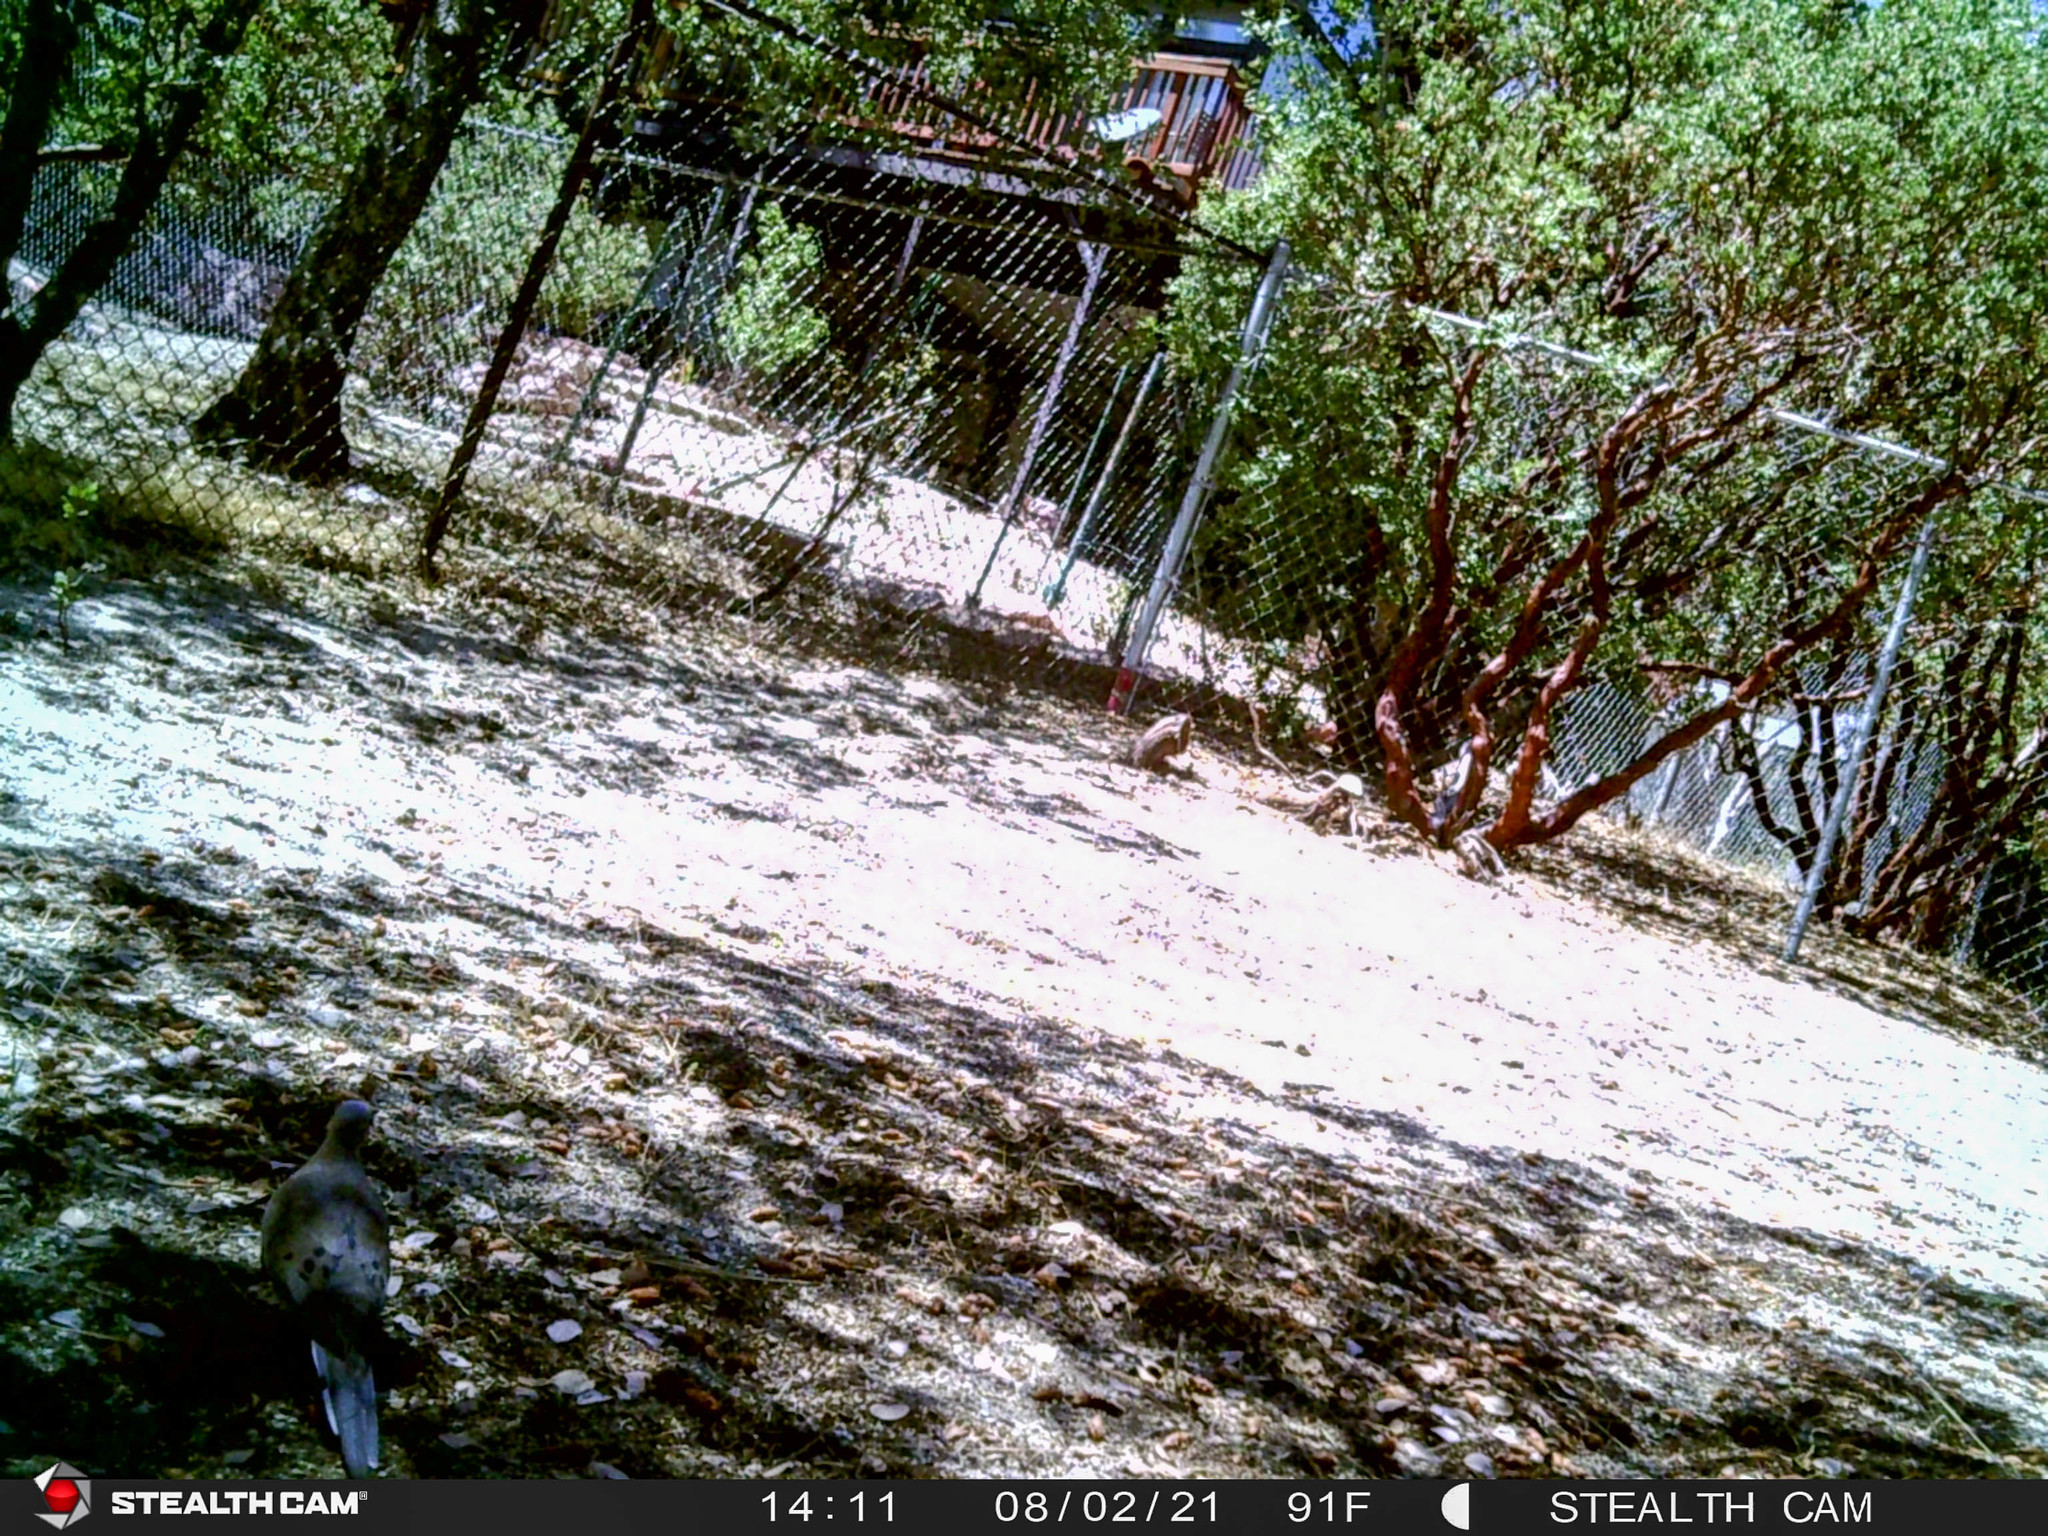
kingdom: Animalia
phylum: Chordata
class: Aves
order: Columbiformes
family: Columbidae
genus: Zenaida
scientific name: Zenaida macroura
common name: Mourning dove
